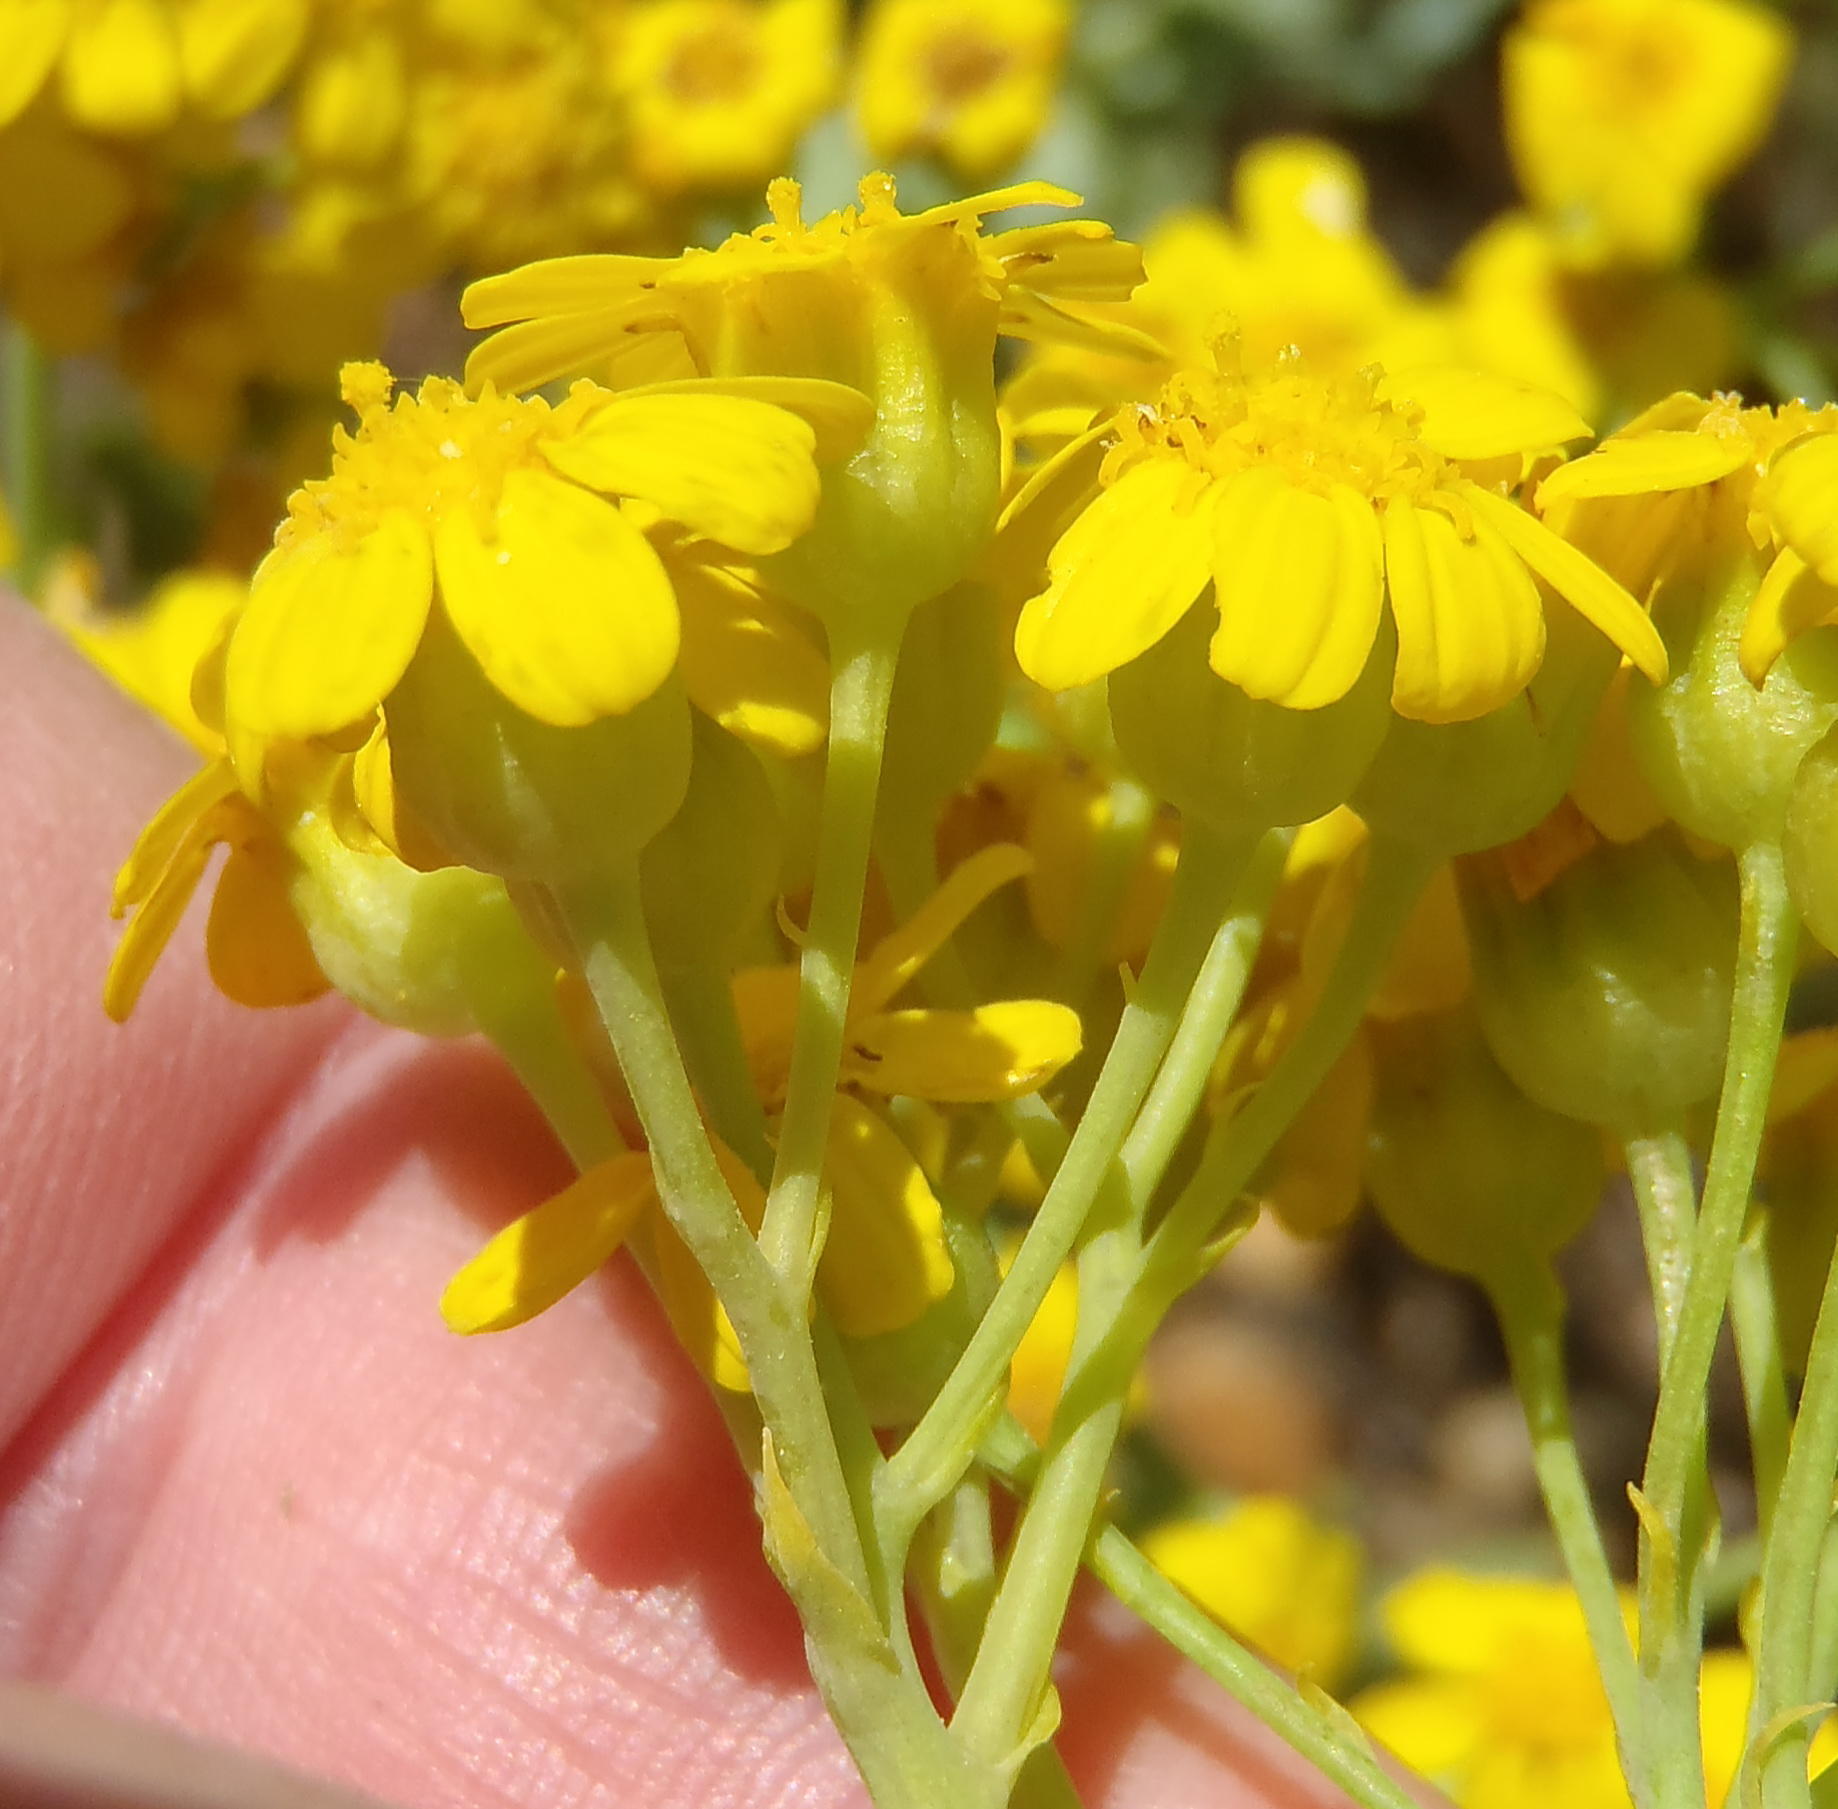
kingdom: Plantae
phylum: Tracheophyta
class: Magnoliopsida
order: Asterales
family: Asteraceae
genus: Othonna
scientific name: Othonna parviflora
